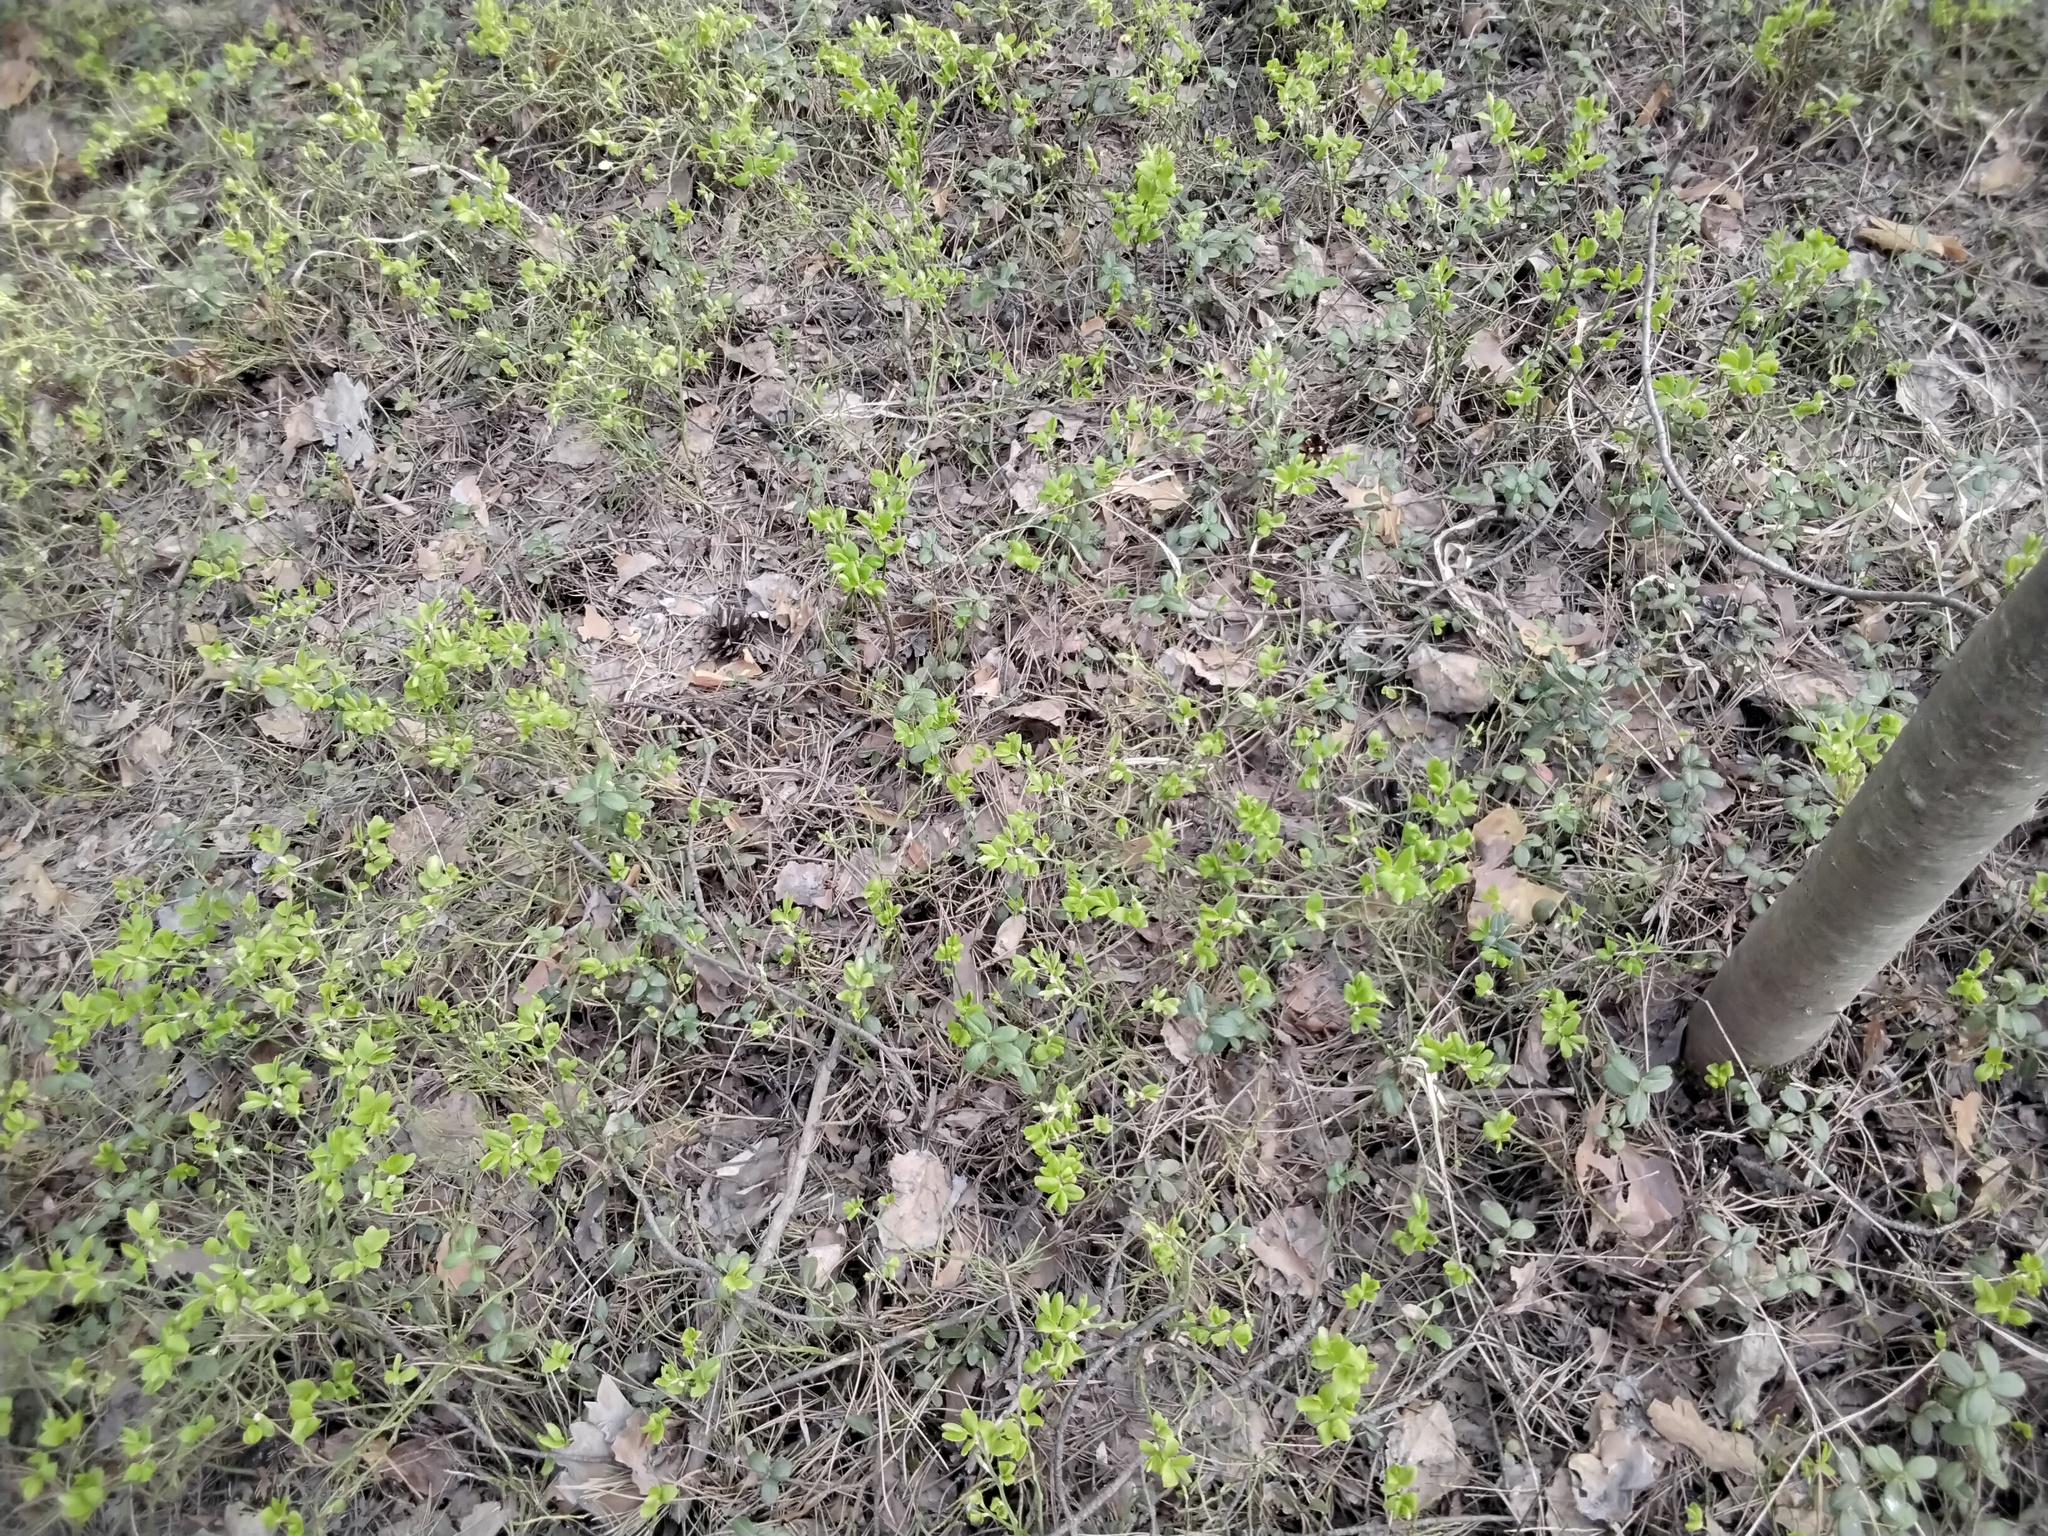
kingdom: Plantae
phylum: Tracheophyta
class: Magnoliopsida
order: Ericales
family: Ericaceae
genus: Vaccinium
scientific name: Vaccinium myrtillus
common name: Bilberry
